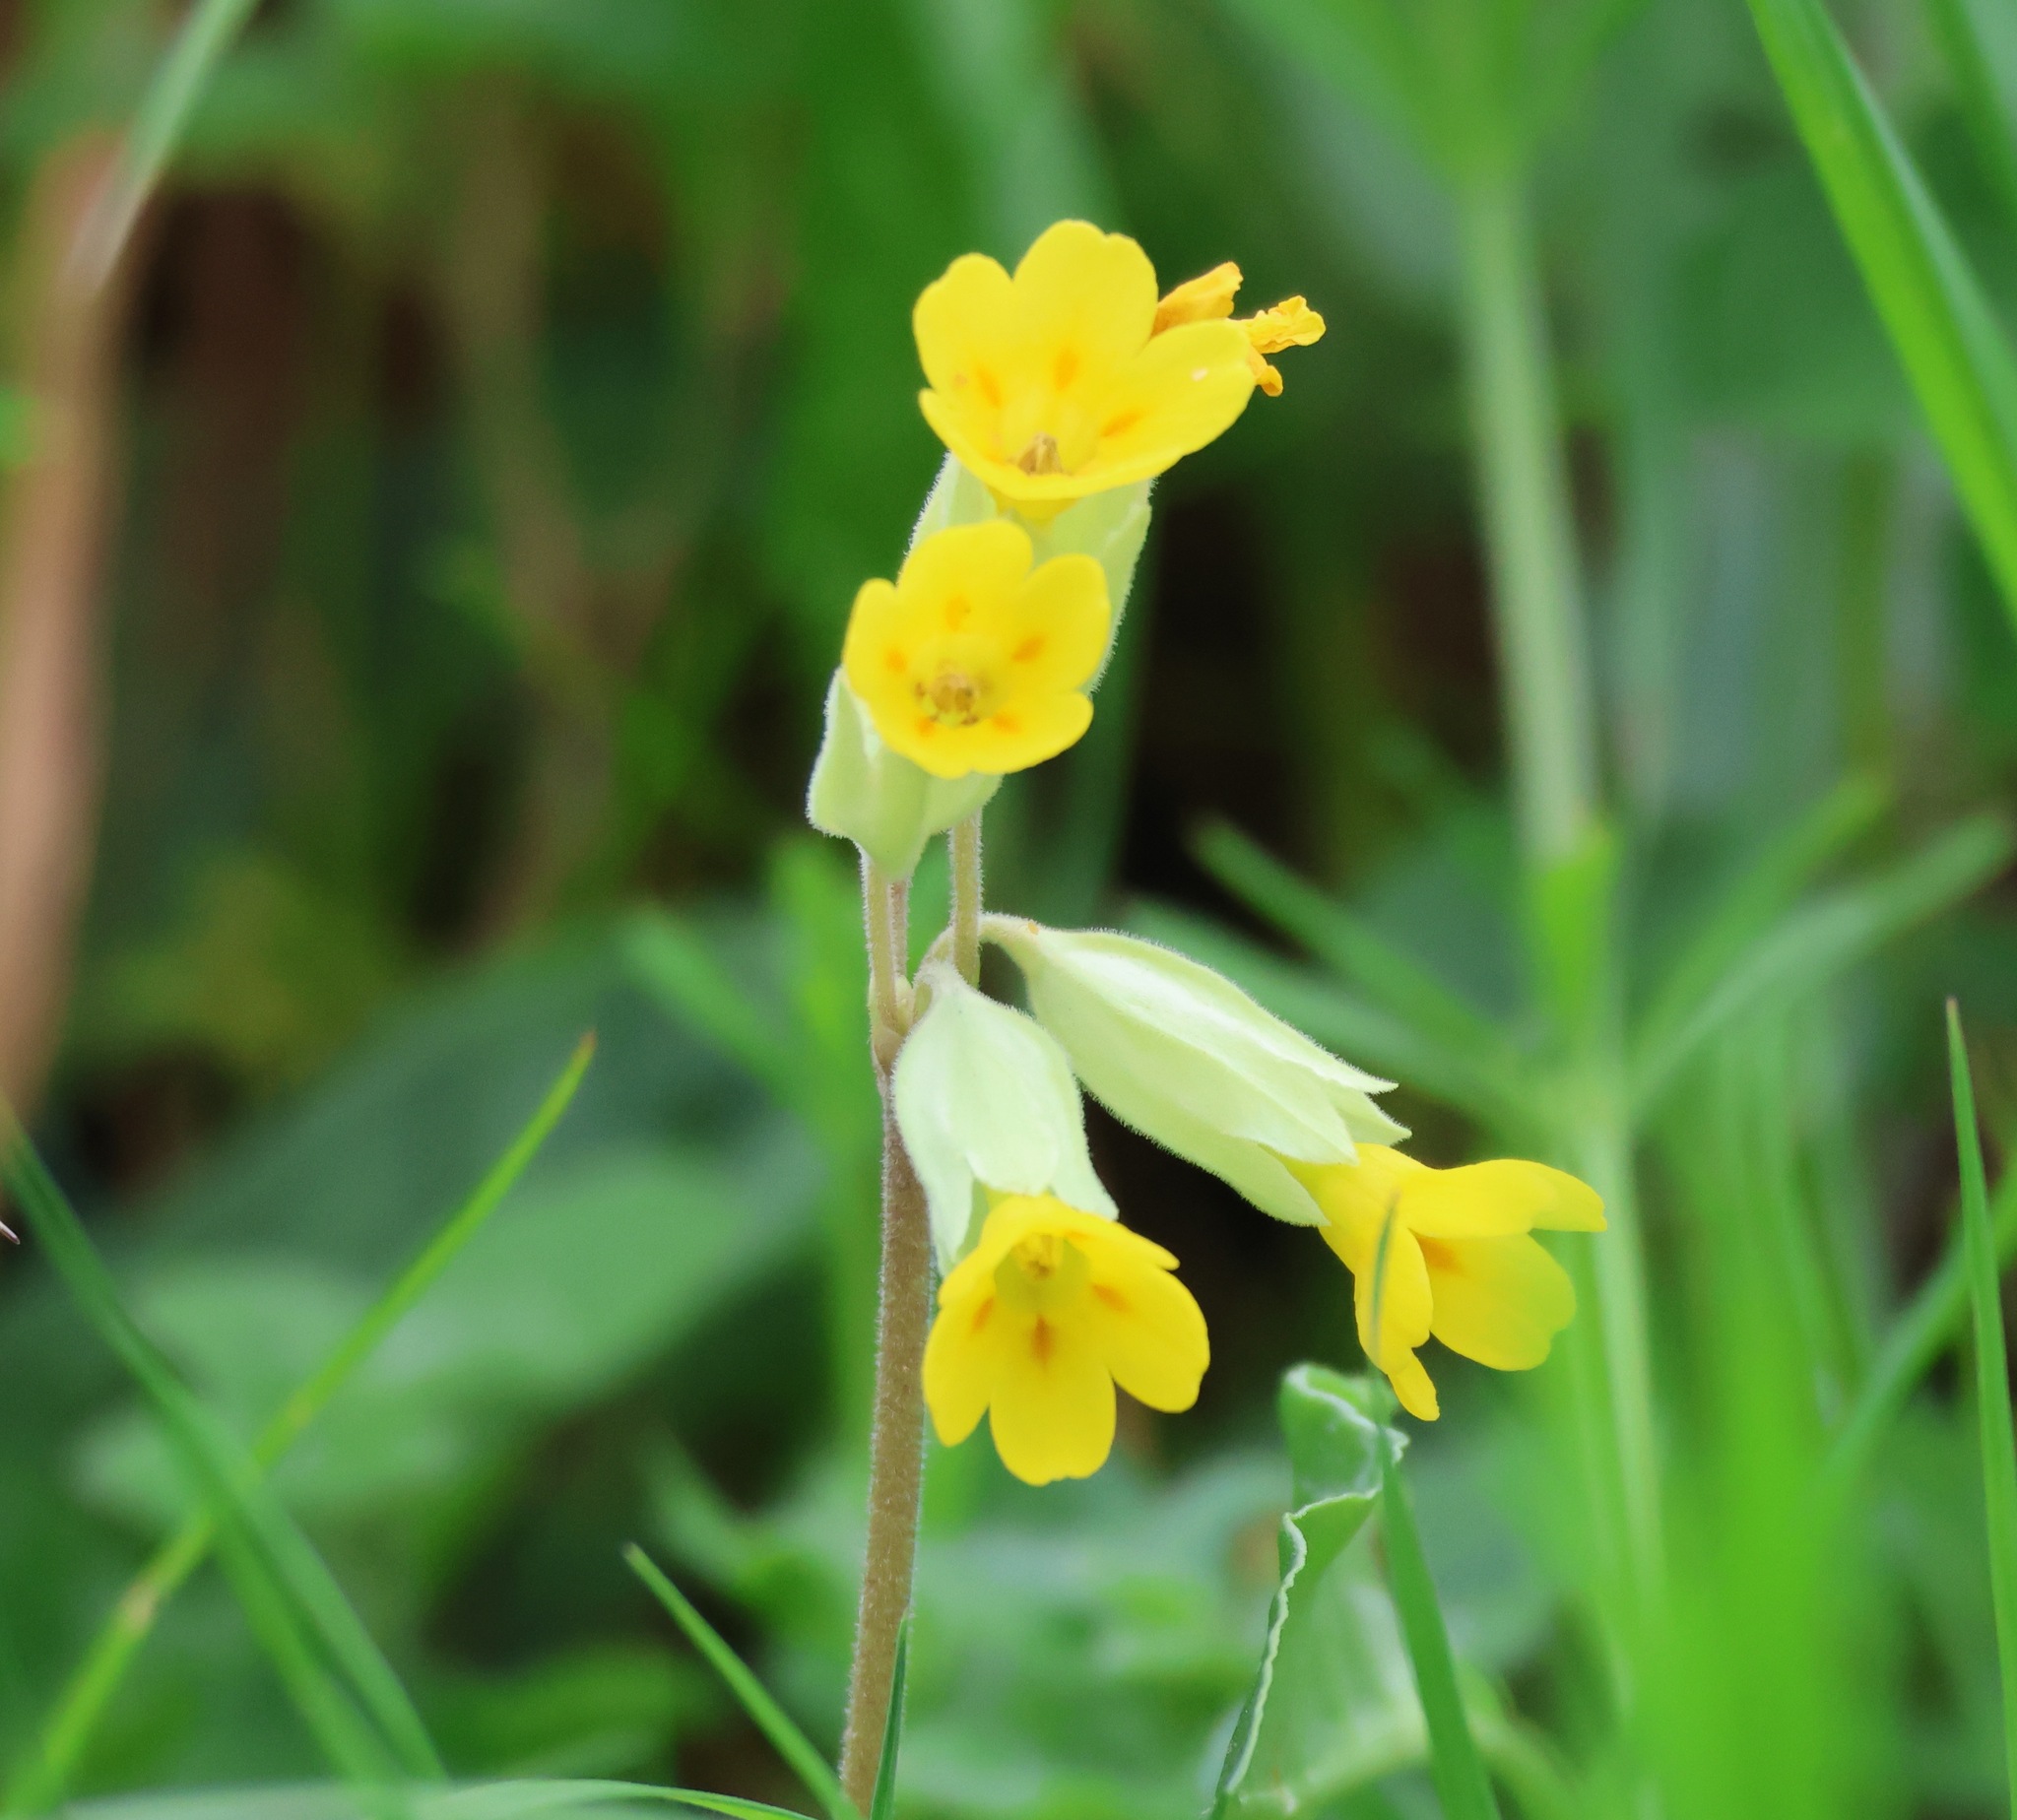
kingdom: Plantae
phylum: Tracheophyta
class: Magnoliopsida
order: Ericales
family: Primulaceae
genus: Primula
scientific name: Primula veris
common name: Cowslip
